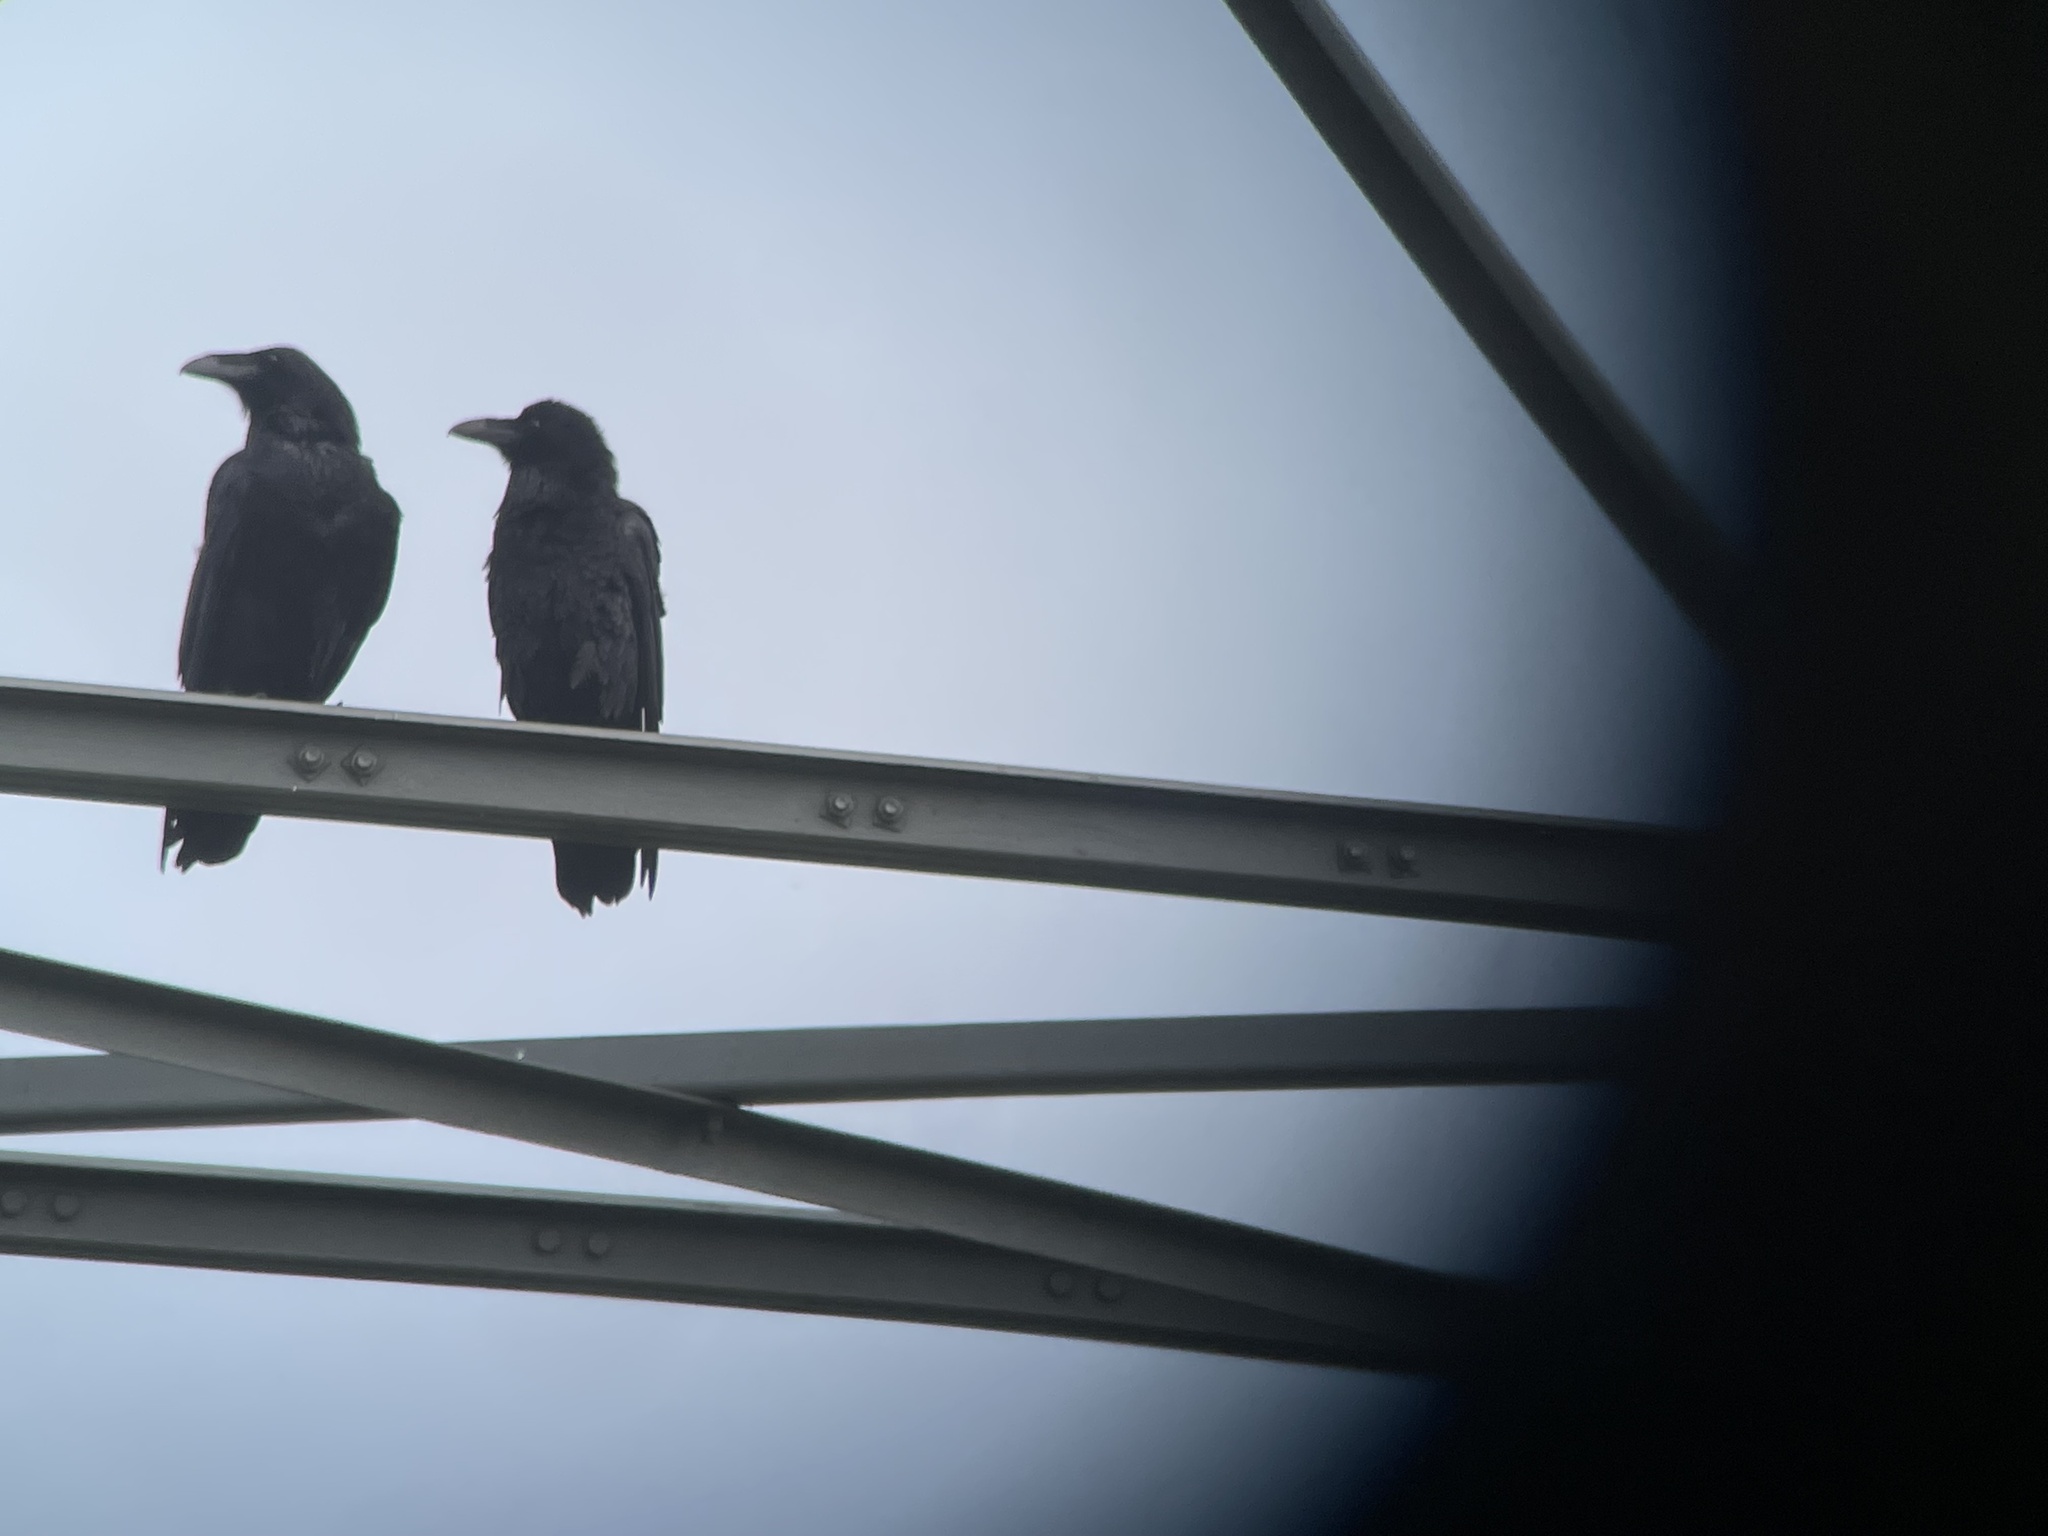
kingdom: Animalia
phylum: Chordata
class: Aves
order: Passeriformes
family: Corvidae
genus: Corvus
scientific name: Corvus corax
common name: Common raven
